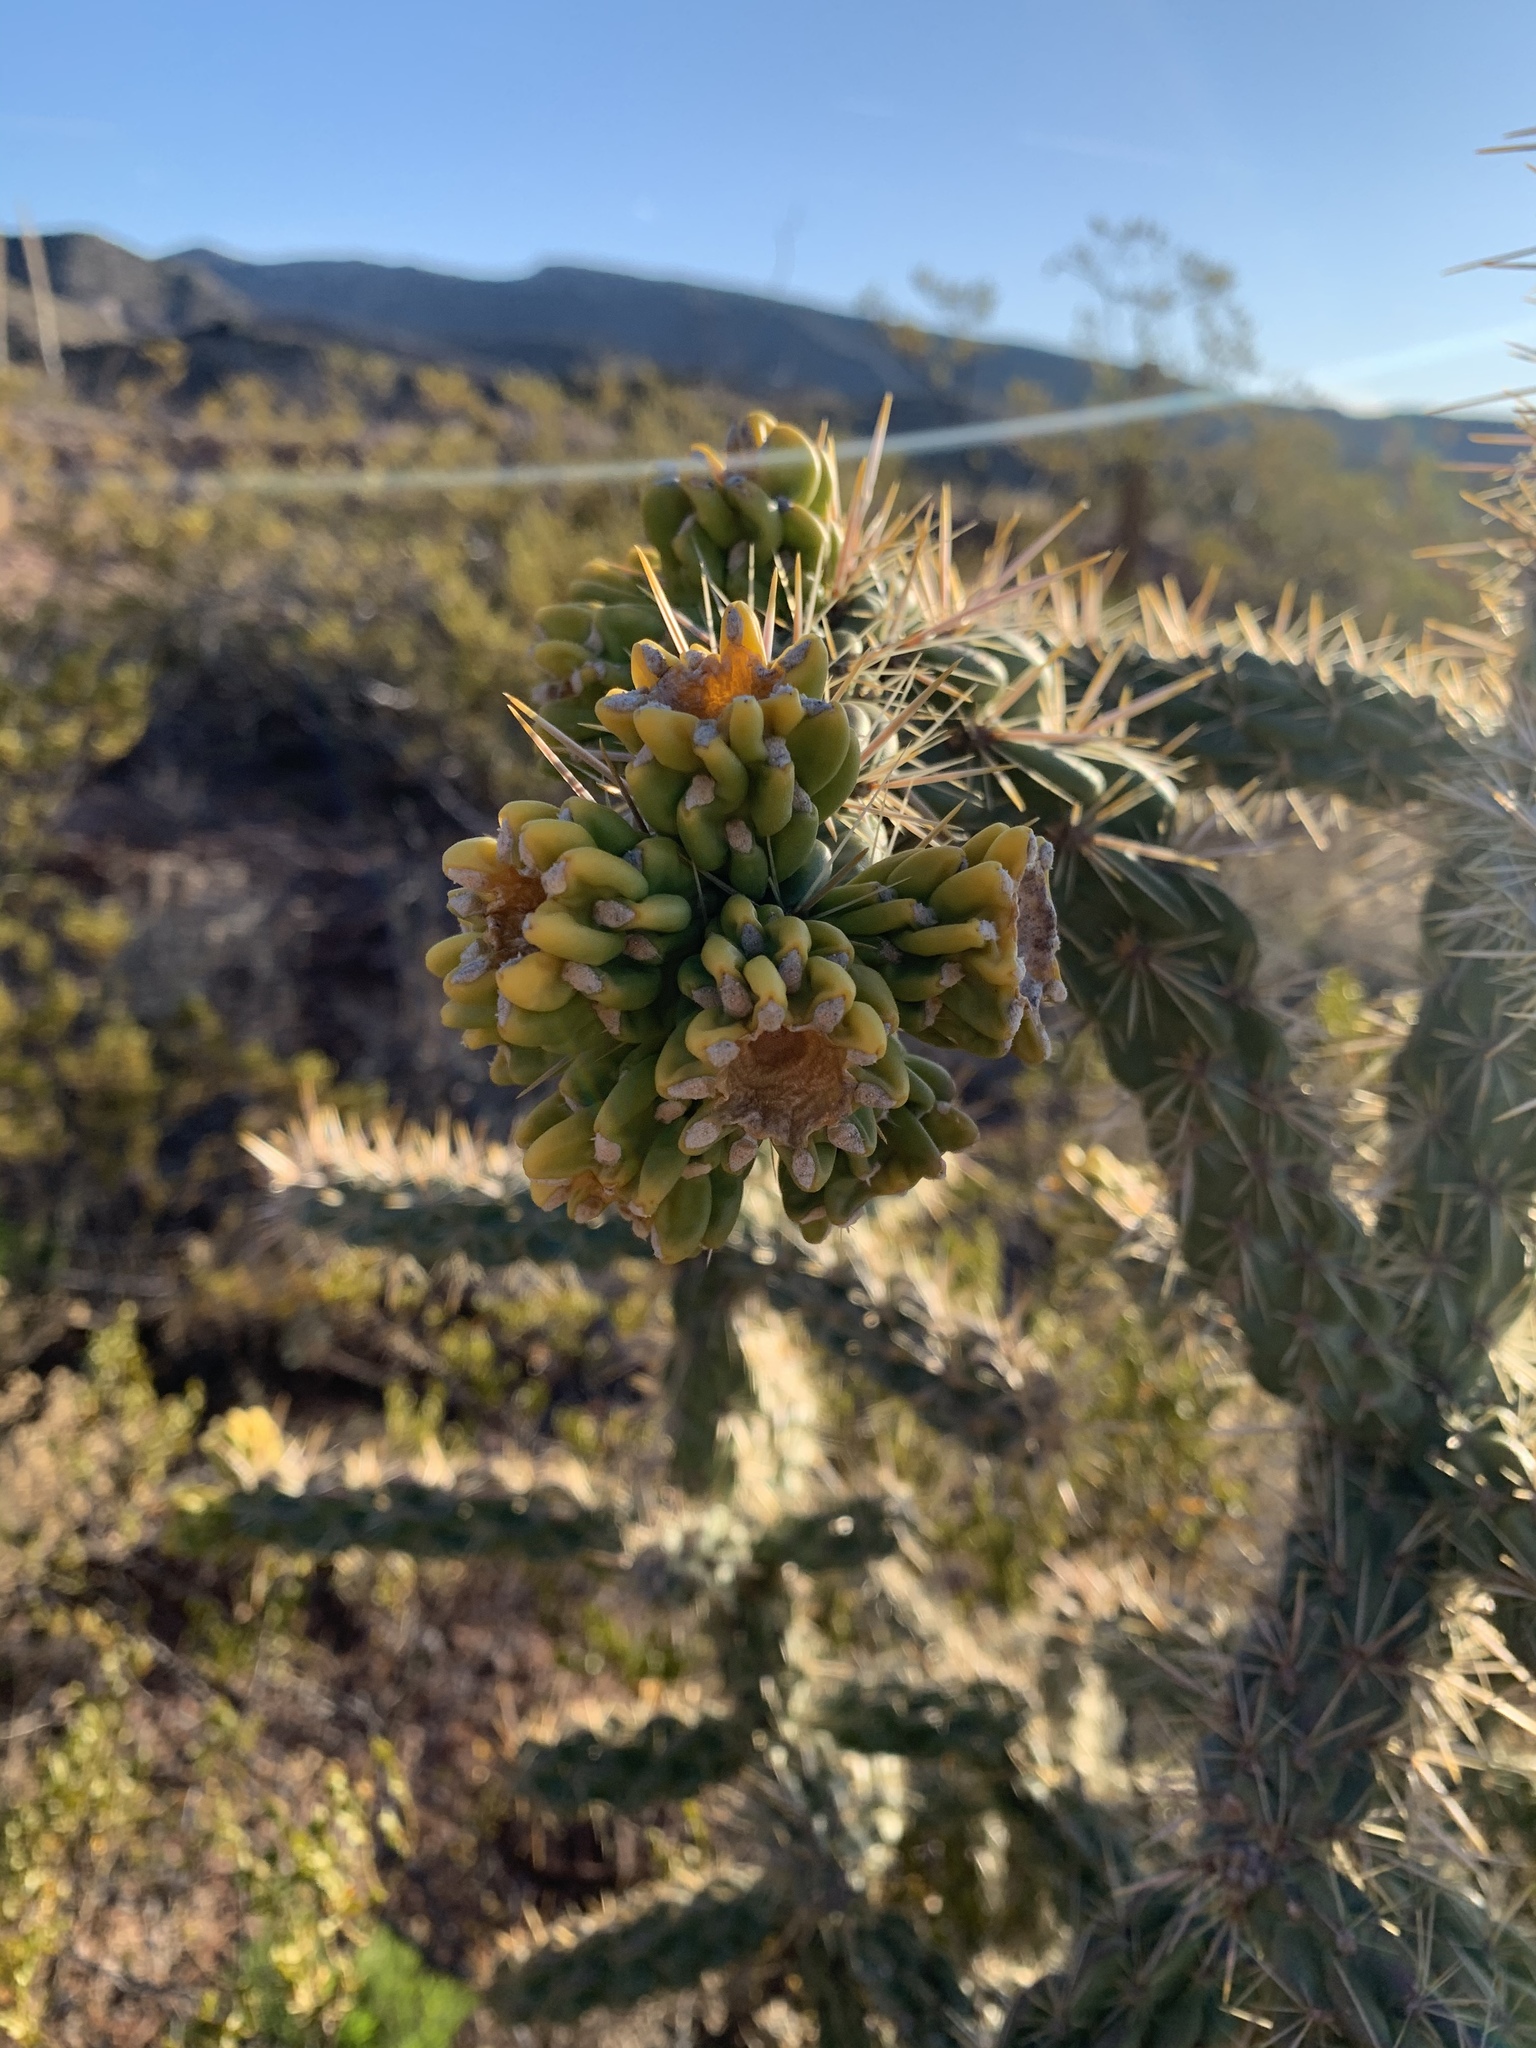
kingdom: Plantae
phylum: Tracheophyta
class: Magnoliopsida
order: Caryophyllales
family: Cactaceae
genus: Cylindropuntia
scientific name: Cylindropuntia imbricata
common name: Candelabrum cactus
